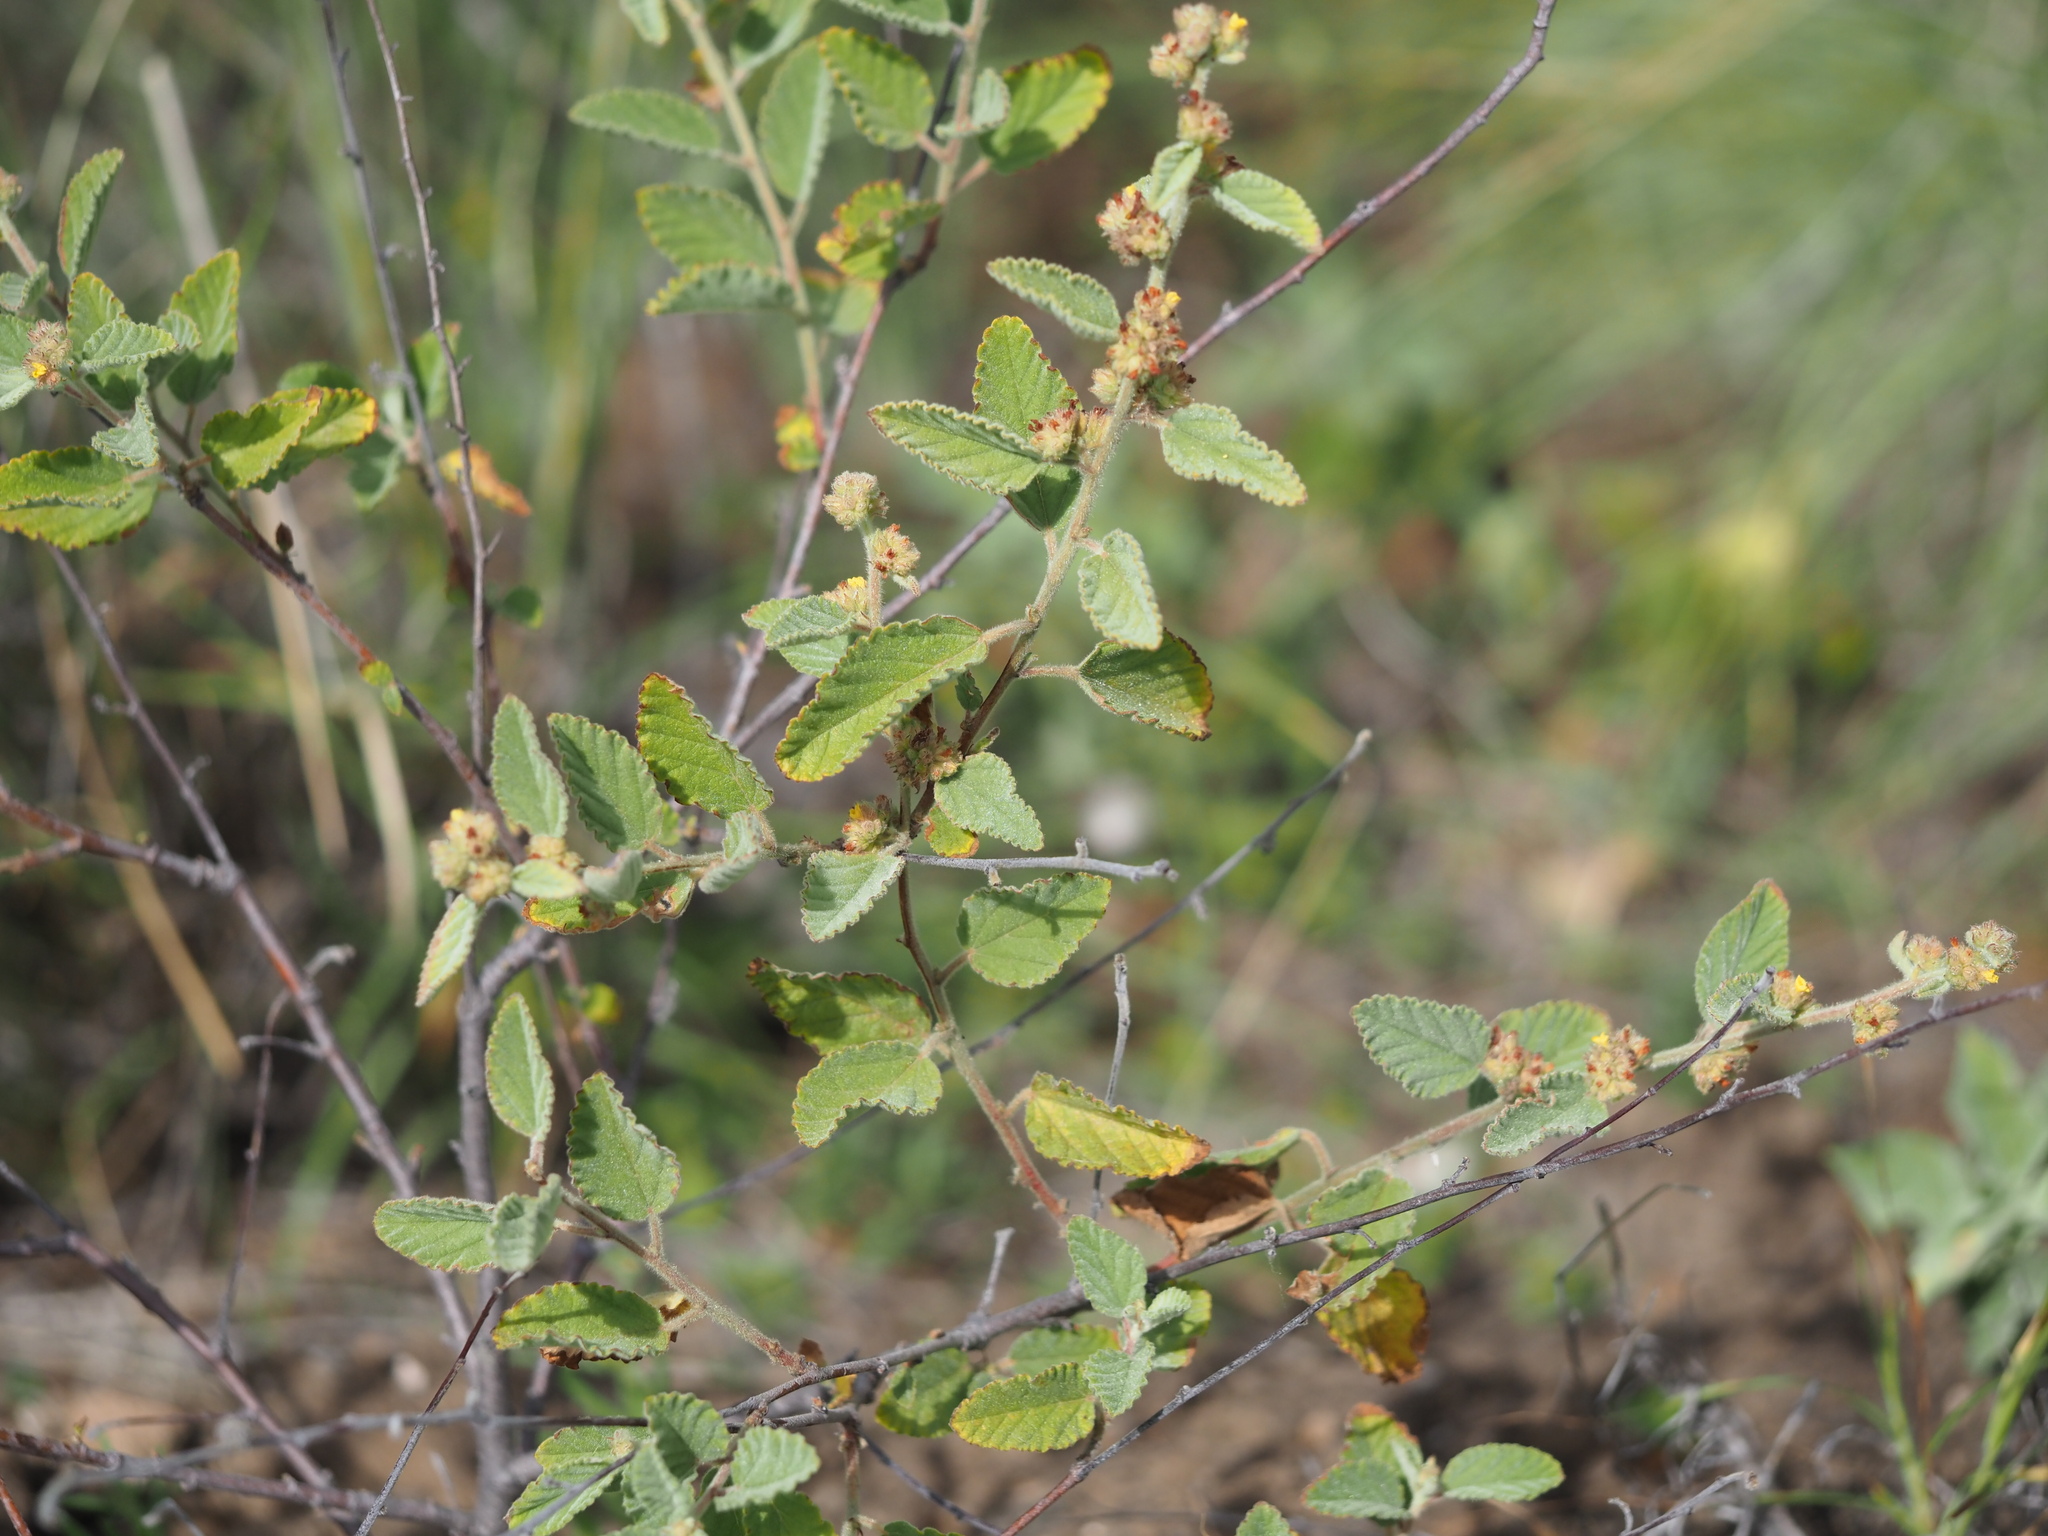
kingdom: Plantae
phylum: Tracheophyta
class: Magnoliopsida
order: Malvales
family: Malvaceae
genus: Waltheria
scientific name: Waltheria indica
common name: Leather-coat
